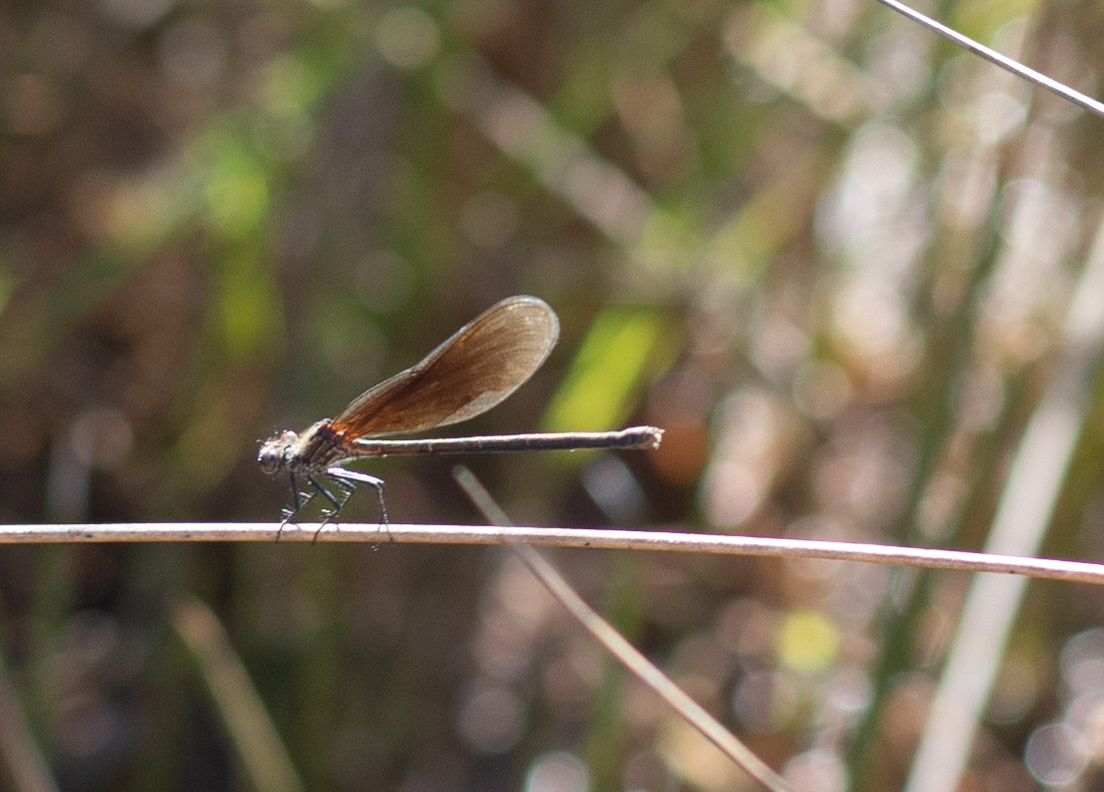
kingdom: Animalia
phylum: Arthropoda
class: Insecta
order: Odonata
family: Calopterygidae
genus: Mnesarete
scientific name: Mnesarete pudica
